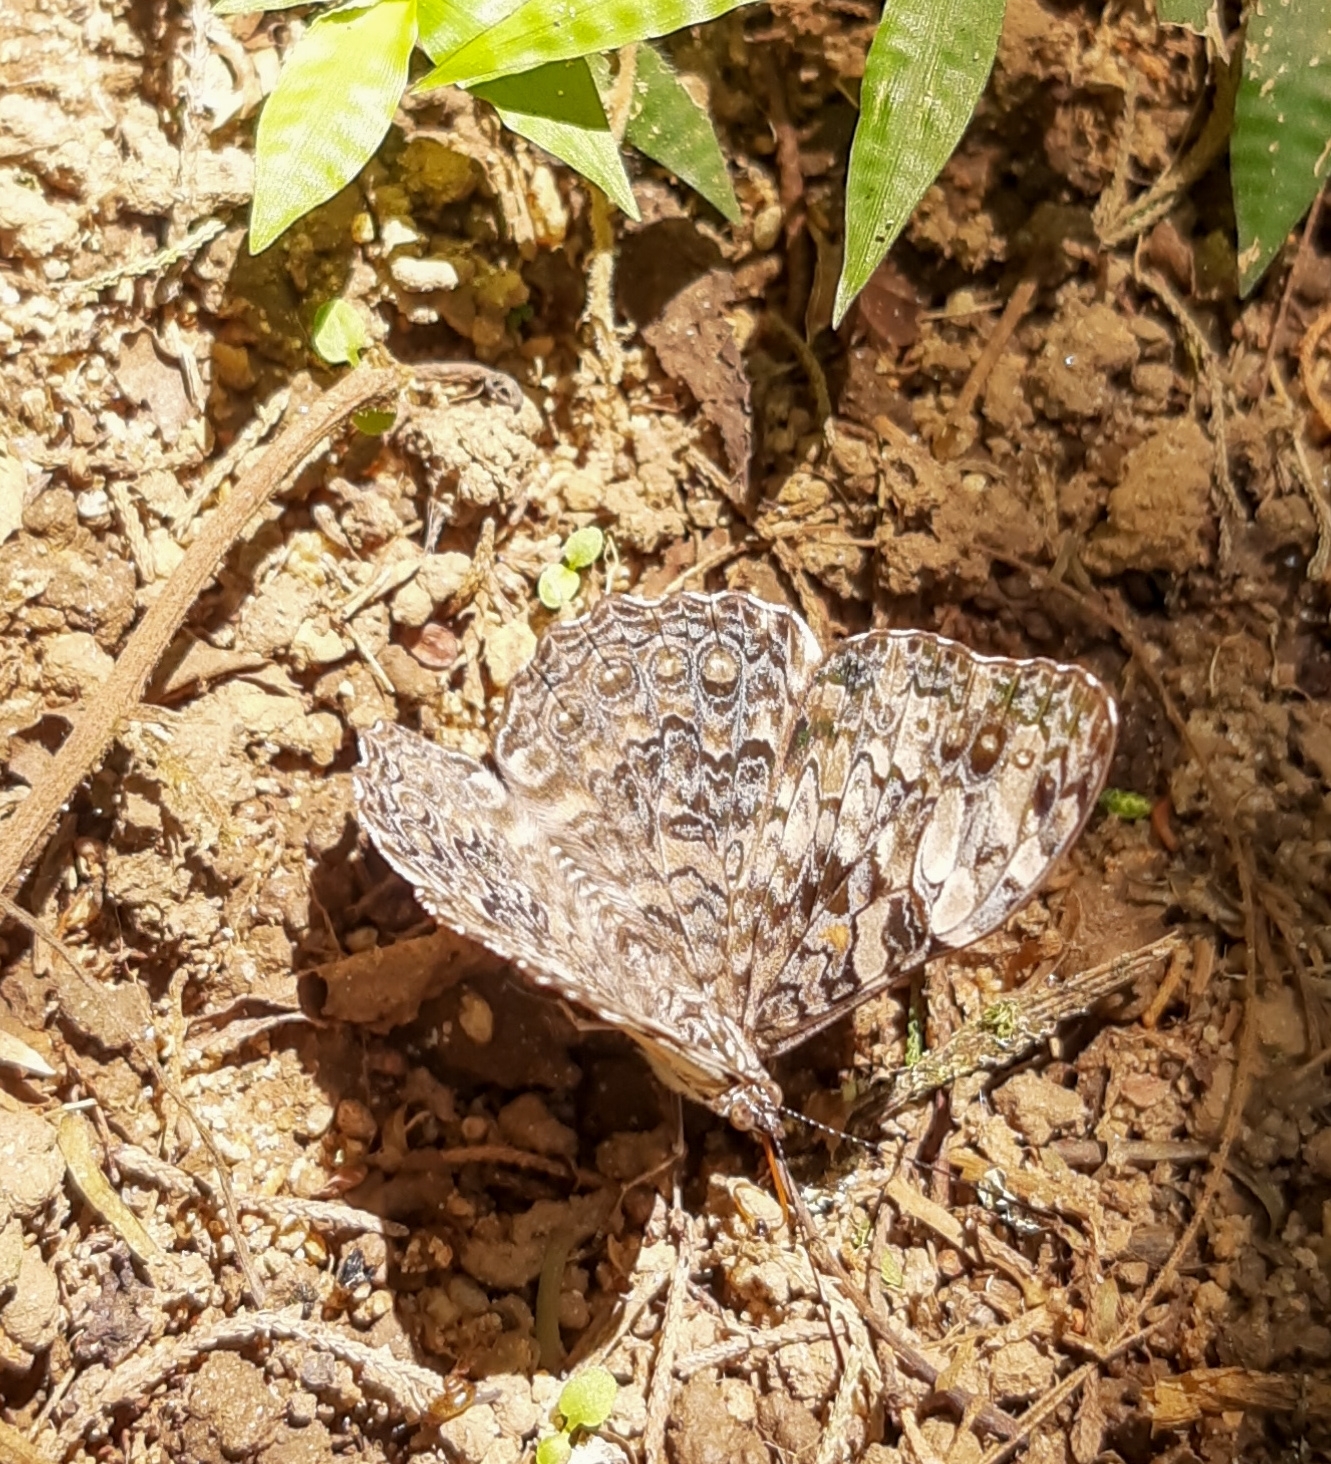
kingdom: Animalia
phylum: Arthropoda
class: Insecta
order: Lepidoptera
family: Nymphalidae
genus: Hamadryas
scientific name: Hamadryas epinome
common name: Epinome cracker
